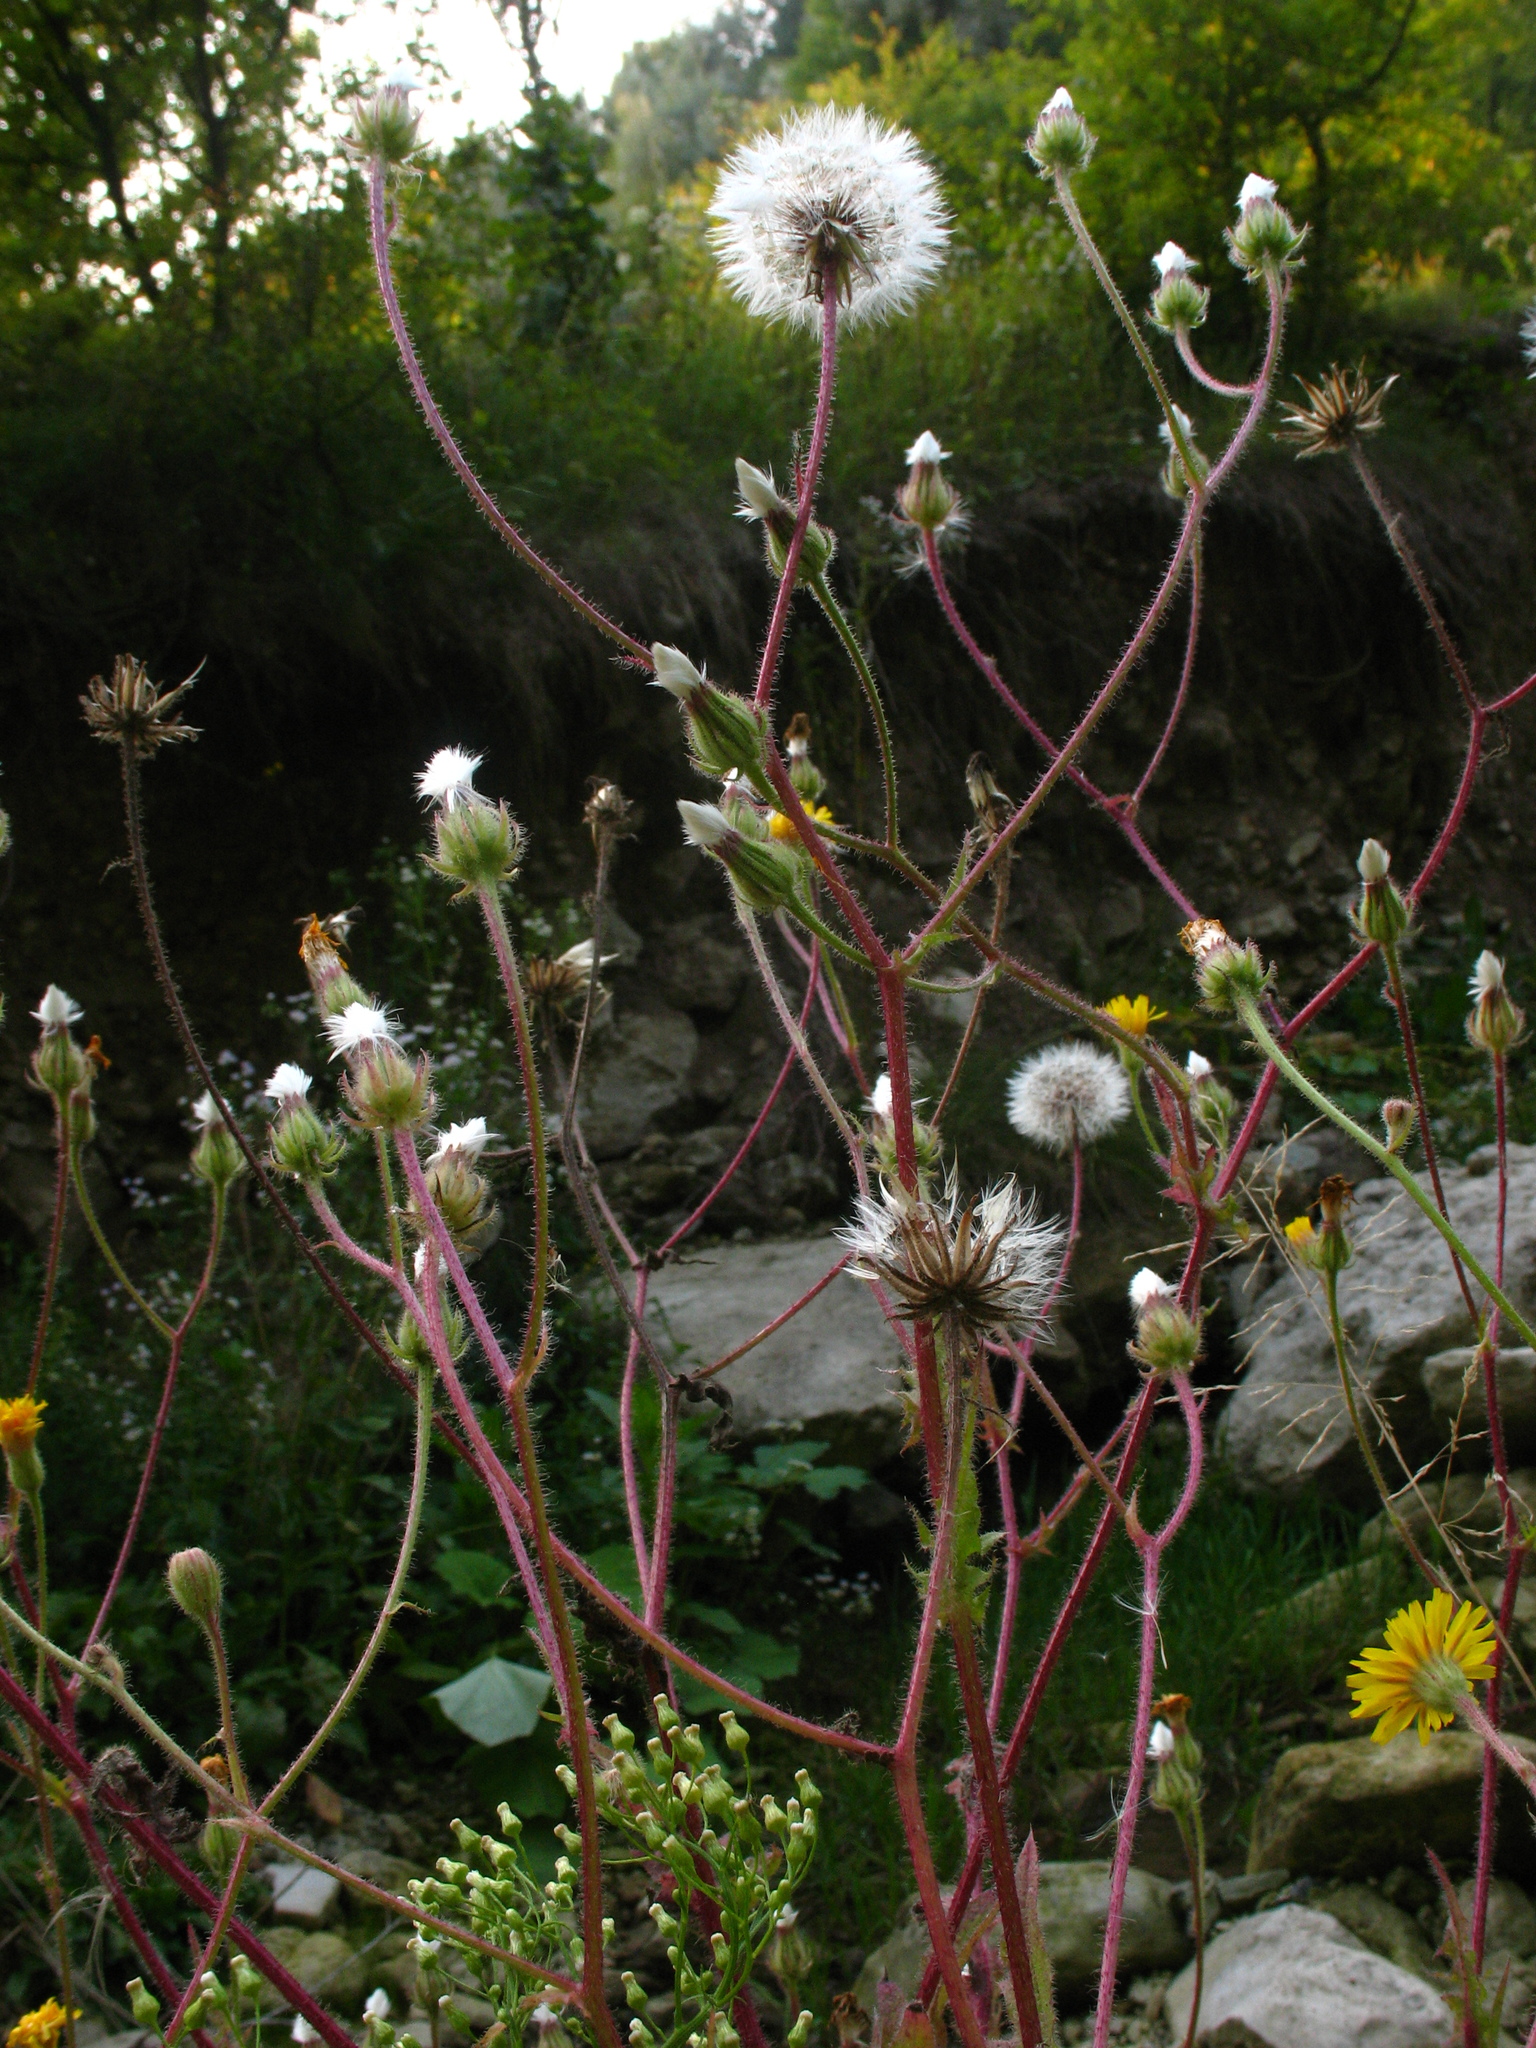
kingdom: Plantae
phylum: Tracheophyta
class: Magnoliopsida
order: Asterales
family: Asteraceae
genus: Crepis
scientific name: Crepis foetida
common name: Stinking hawk's-beard
